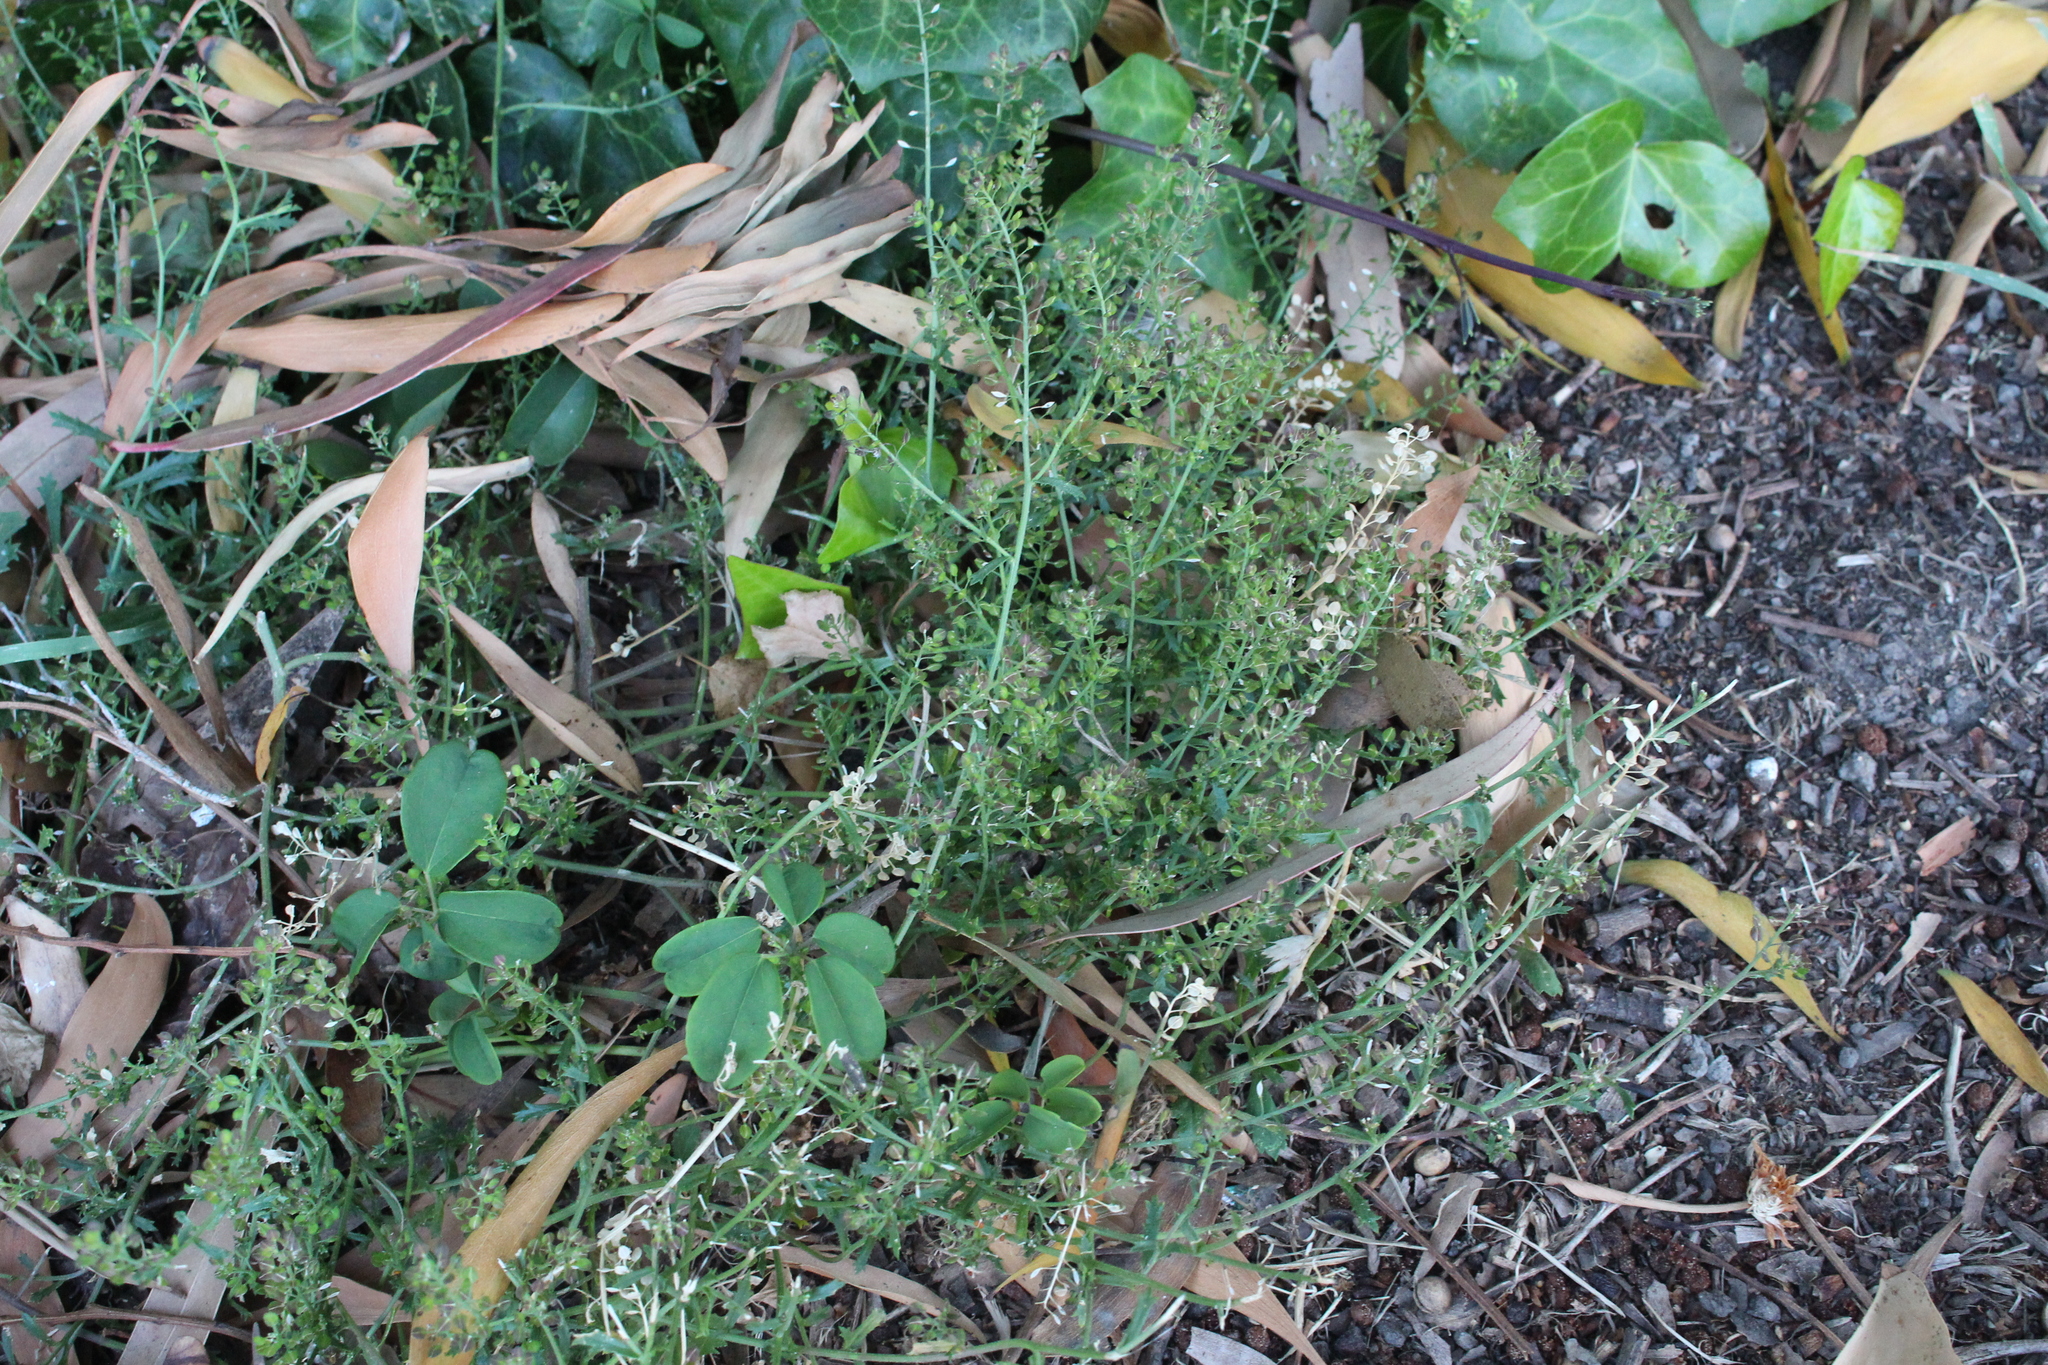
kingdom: Plantae
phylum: Tracheophyta
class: Magnoliopsida
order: Brassicales
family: Brassicaceae
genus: Lepidium
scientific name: Lepidium desvauxii
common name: Bushy pepperwort
